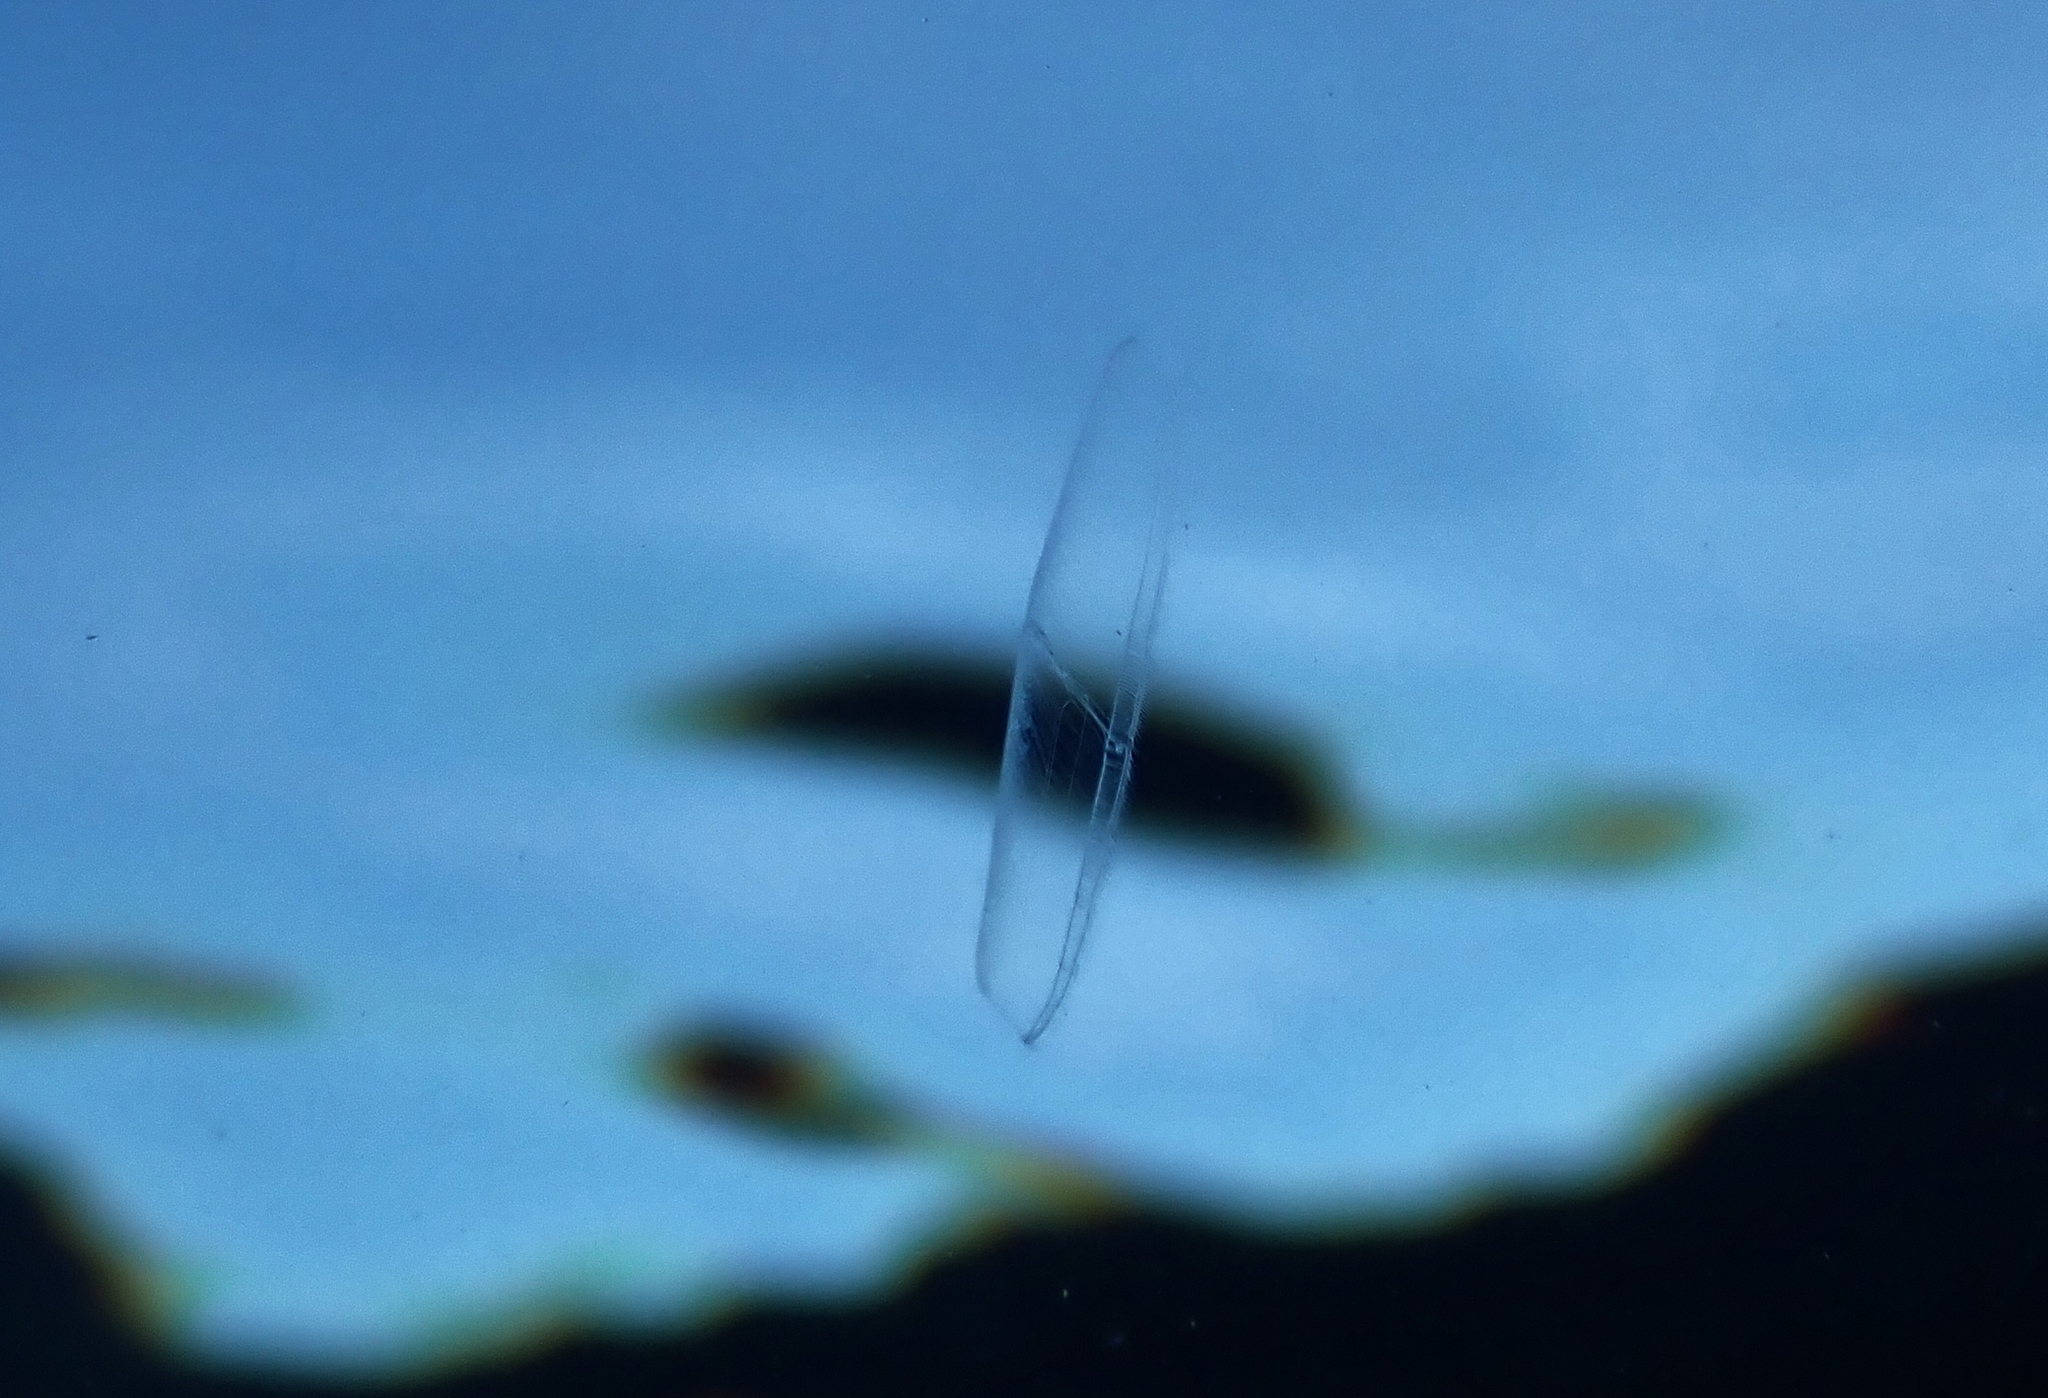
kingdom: Animalia
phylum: Ctenophora
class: Tentaculata
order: Cestida
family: Cestidae
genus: Velamen
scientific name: Velamen parallelum
